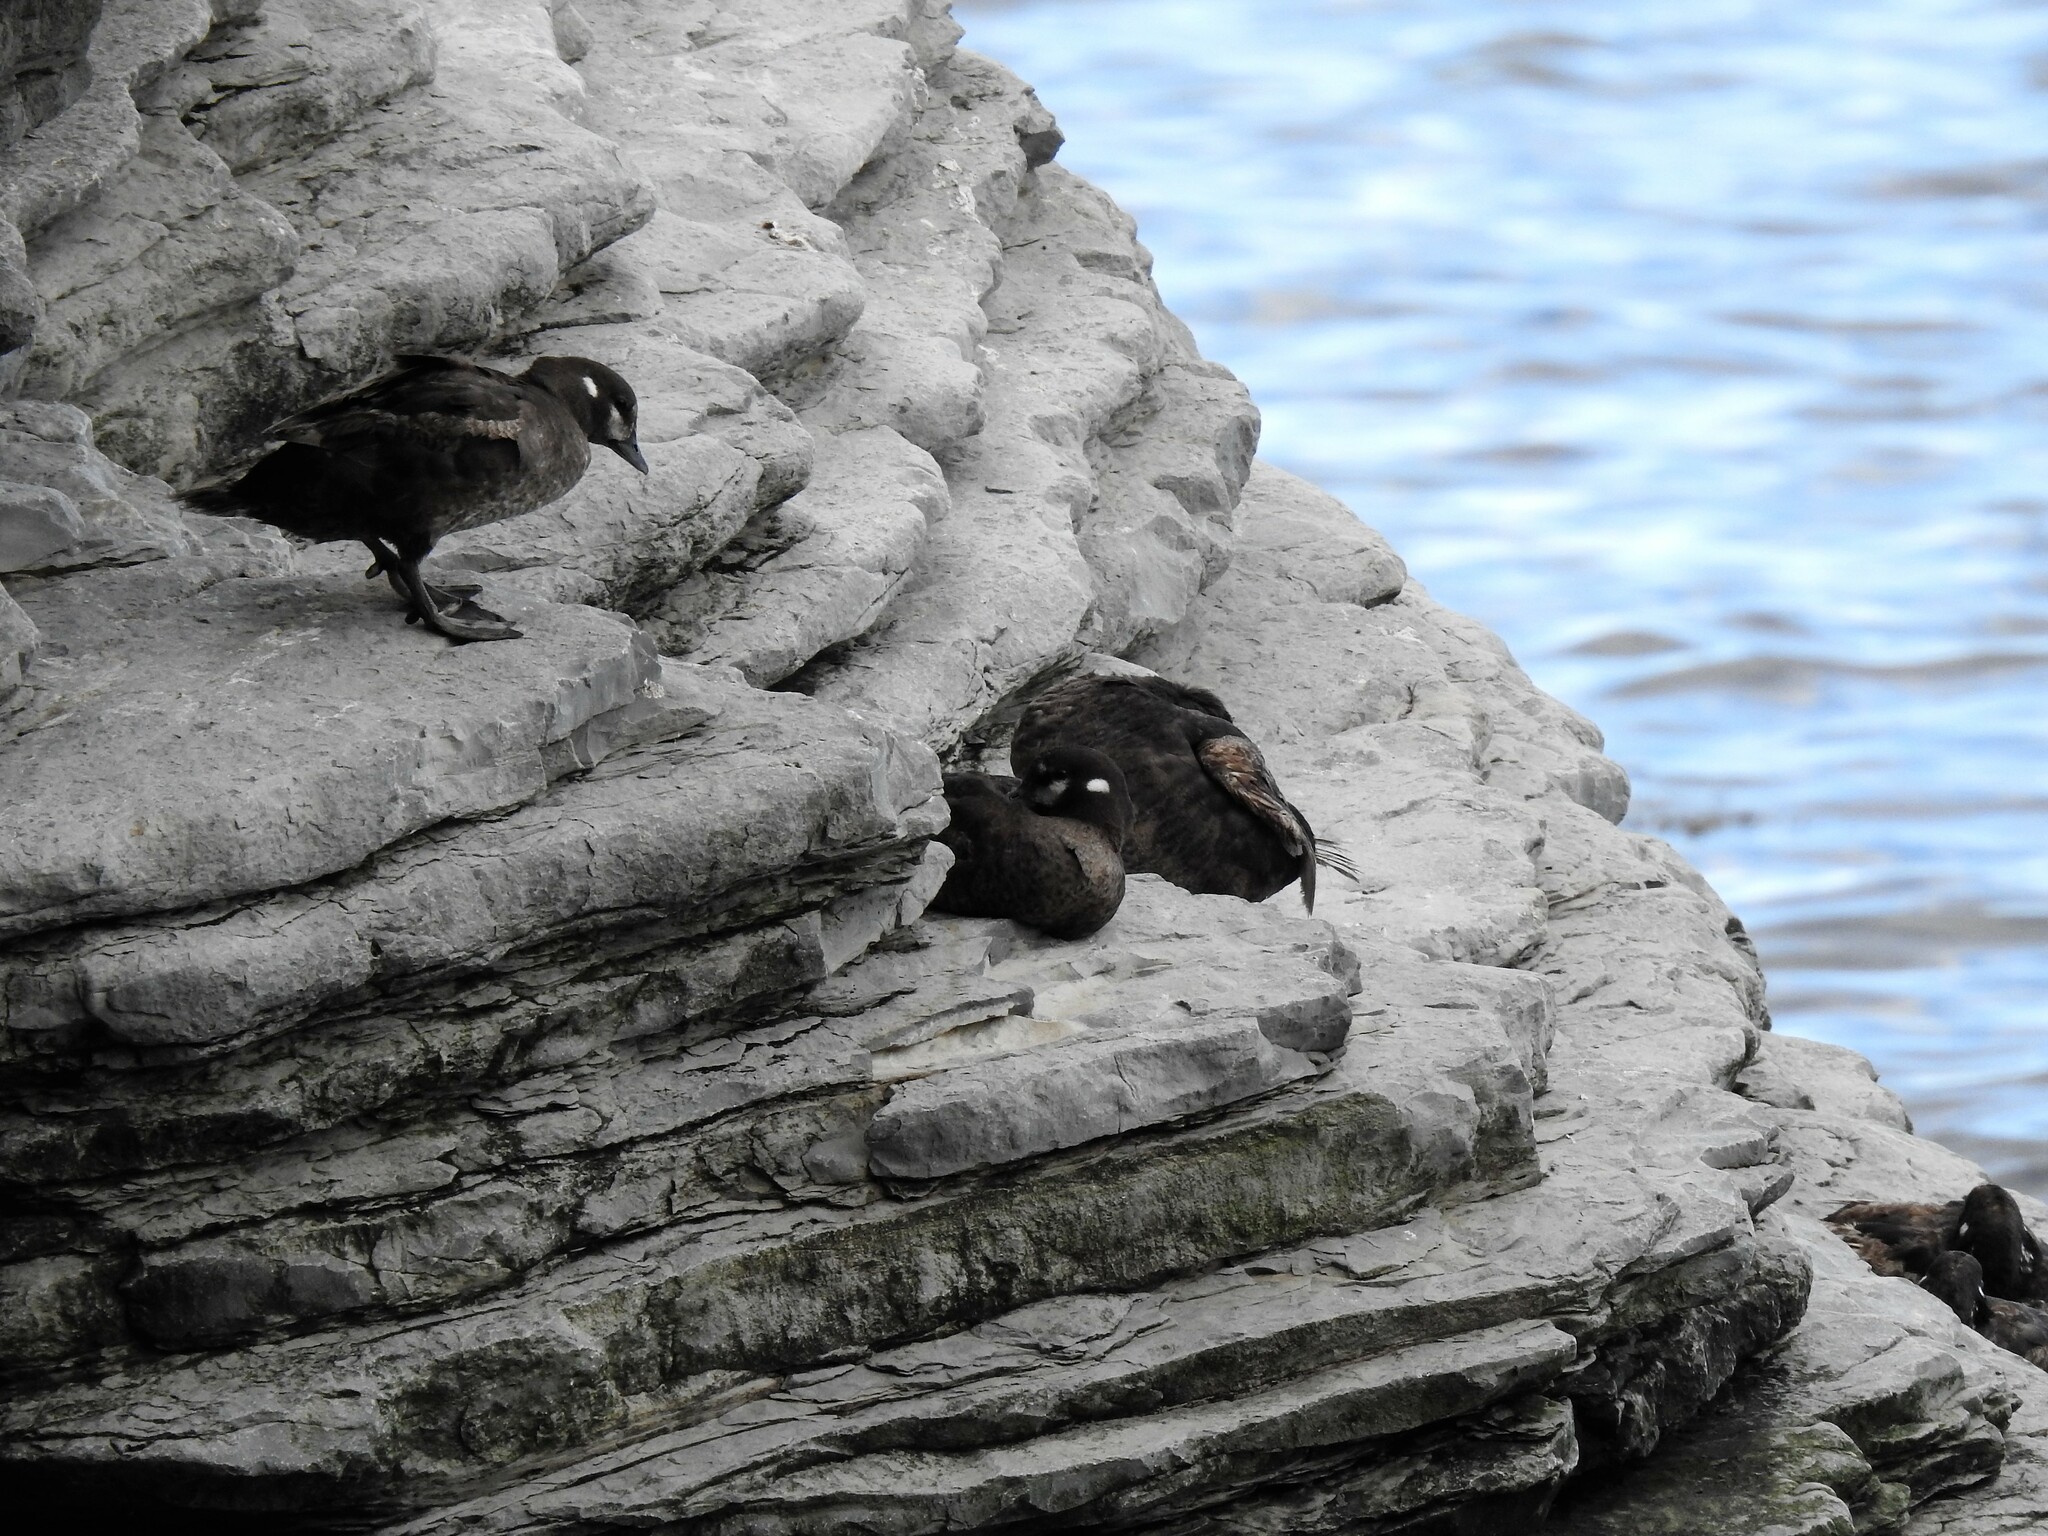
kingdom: Animalia
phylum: Chordata
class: Aves
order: Anseriformes
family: Anatidae
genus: Histrionicus
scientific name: Histrionicus histrionicus
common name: Harlequin duck
